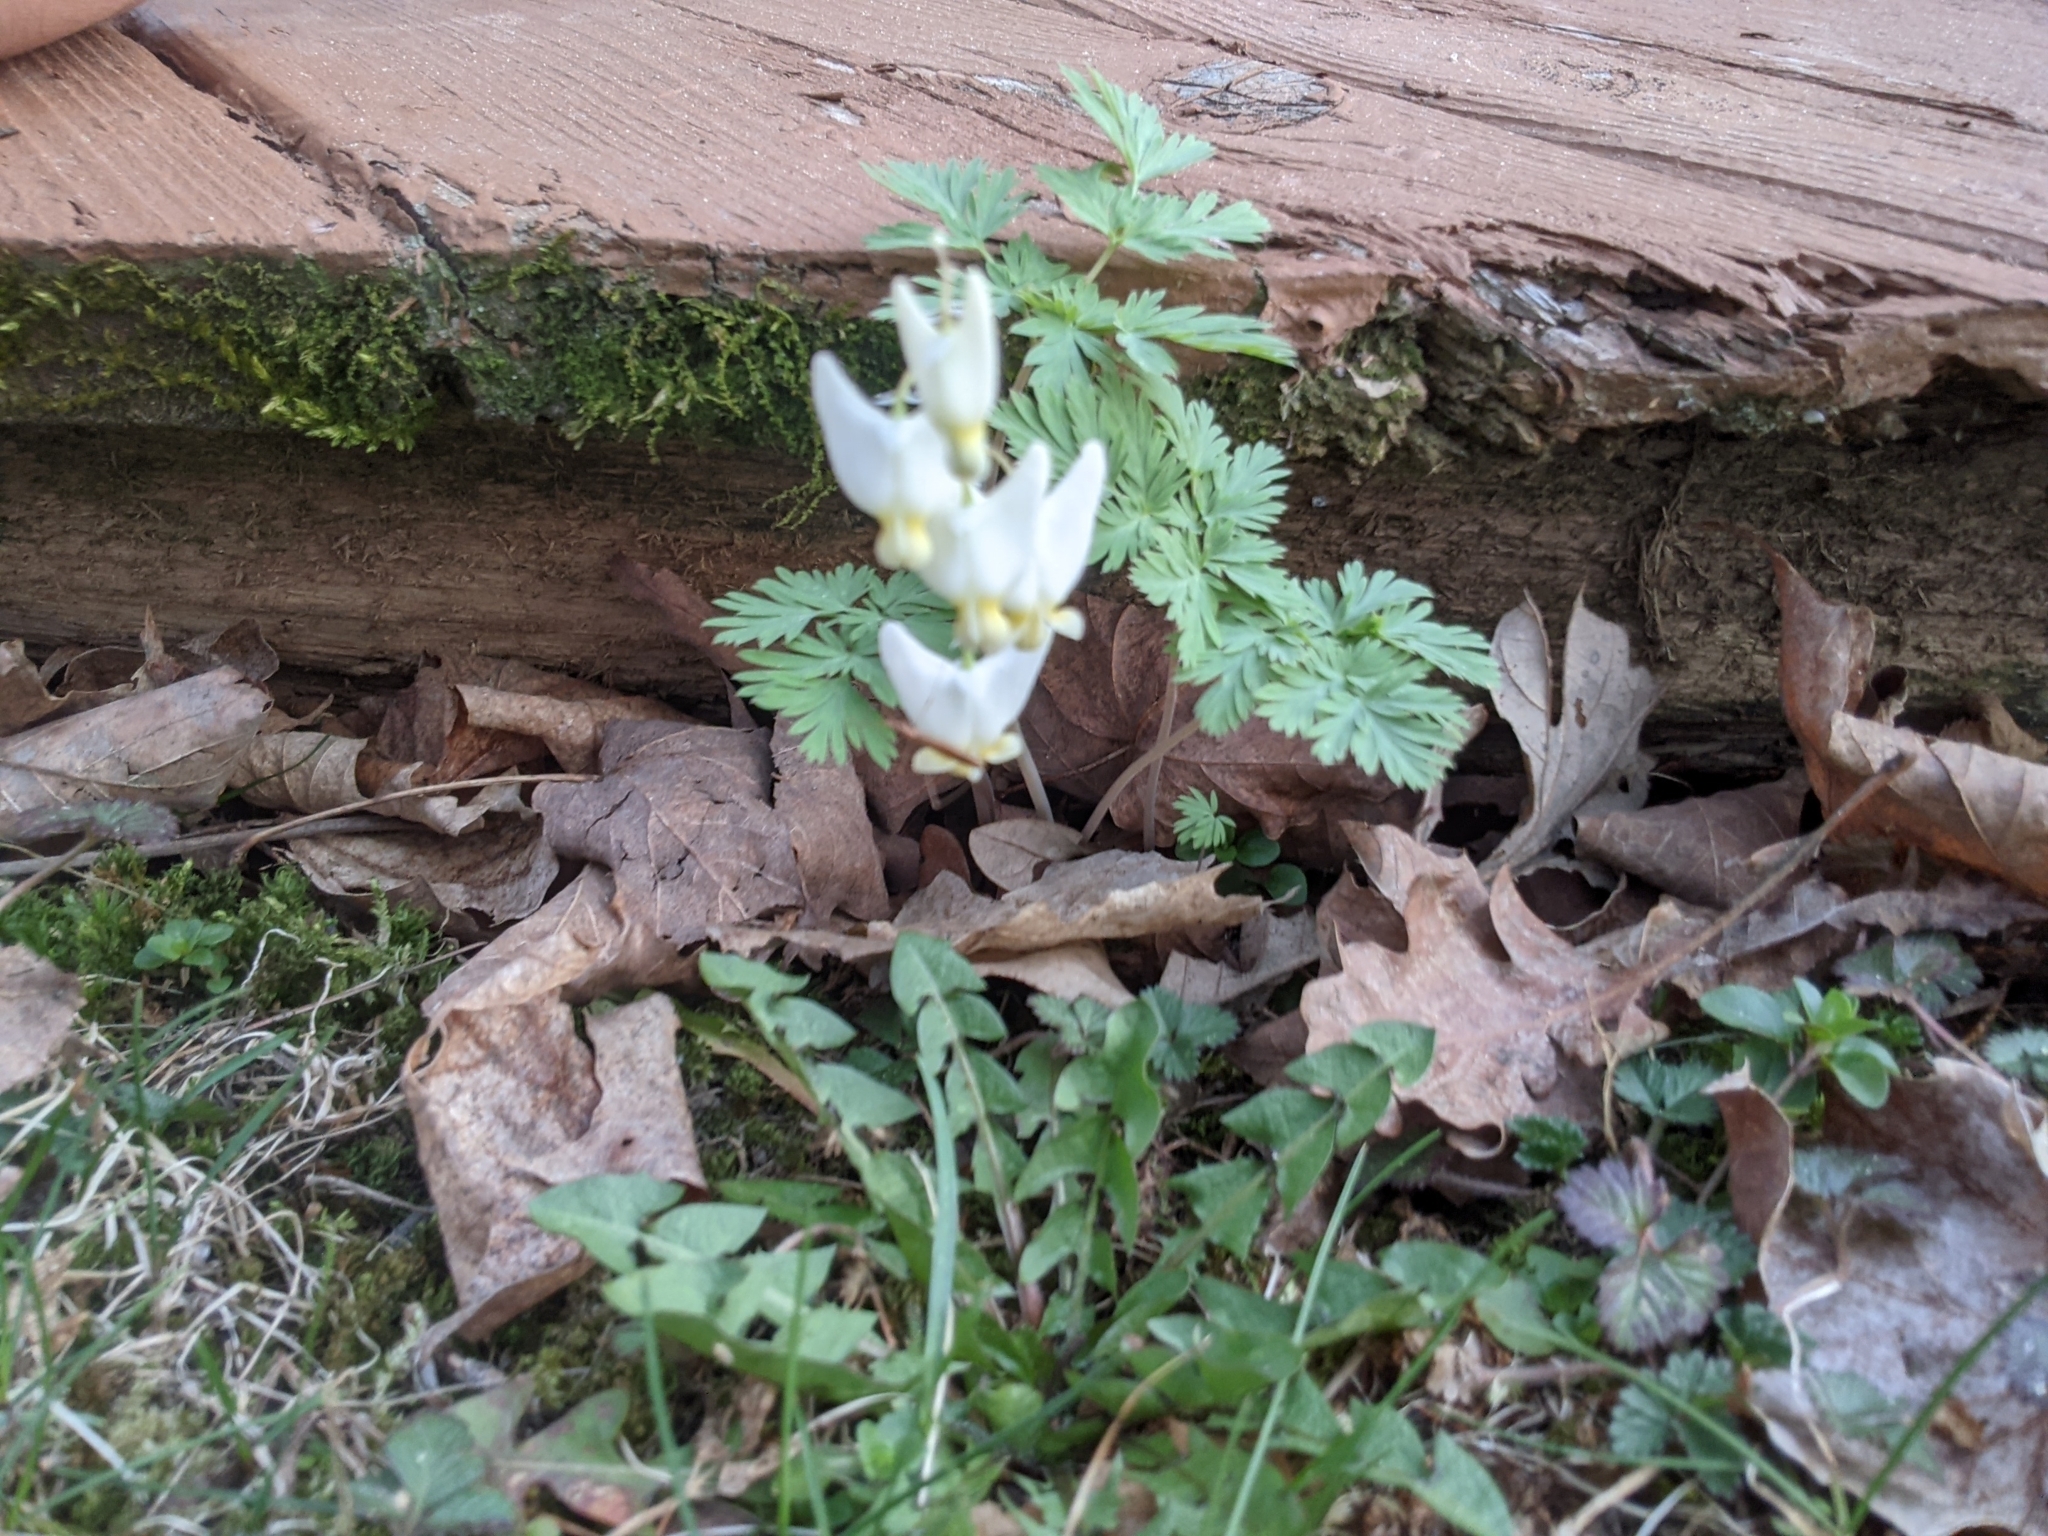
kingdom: Plantae
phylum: Tracheophyta
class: Magnoliopsida
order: Ranunculales
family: Papaveraceae
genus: Dicentra
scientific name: Dicentra cucullaria
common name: Dutchman's breeches
